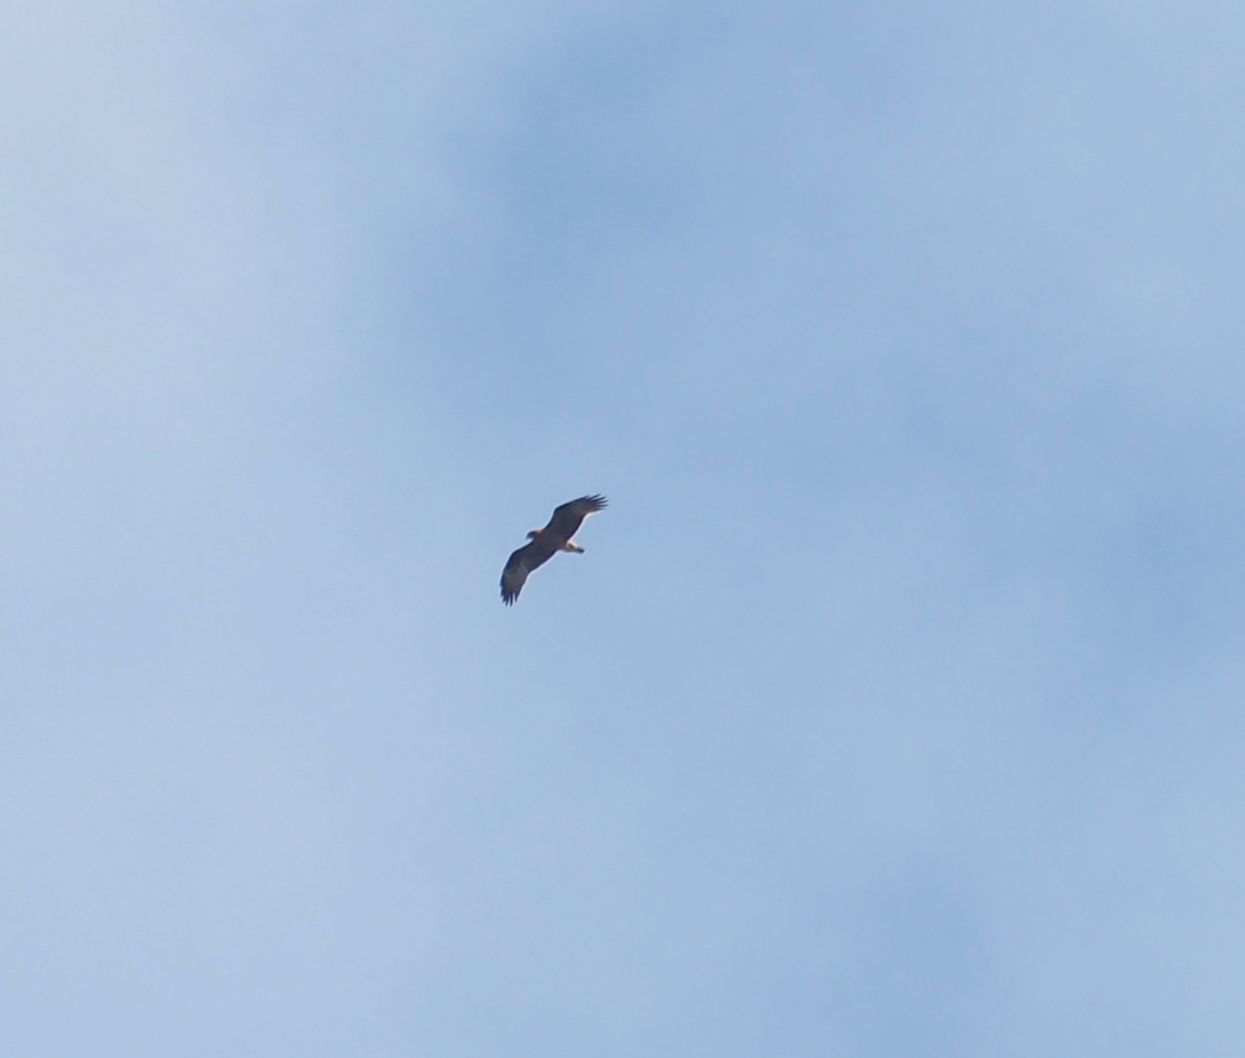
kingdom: Animalia
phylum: Chordata
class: Aves
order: Accipitriformes
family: Accipitridae
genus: Hieraaetus
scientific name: Hieraaetus pennatus
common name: Booted eagle
